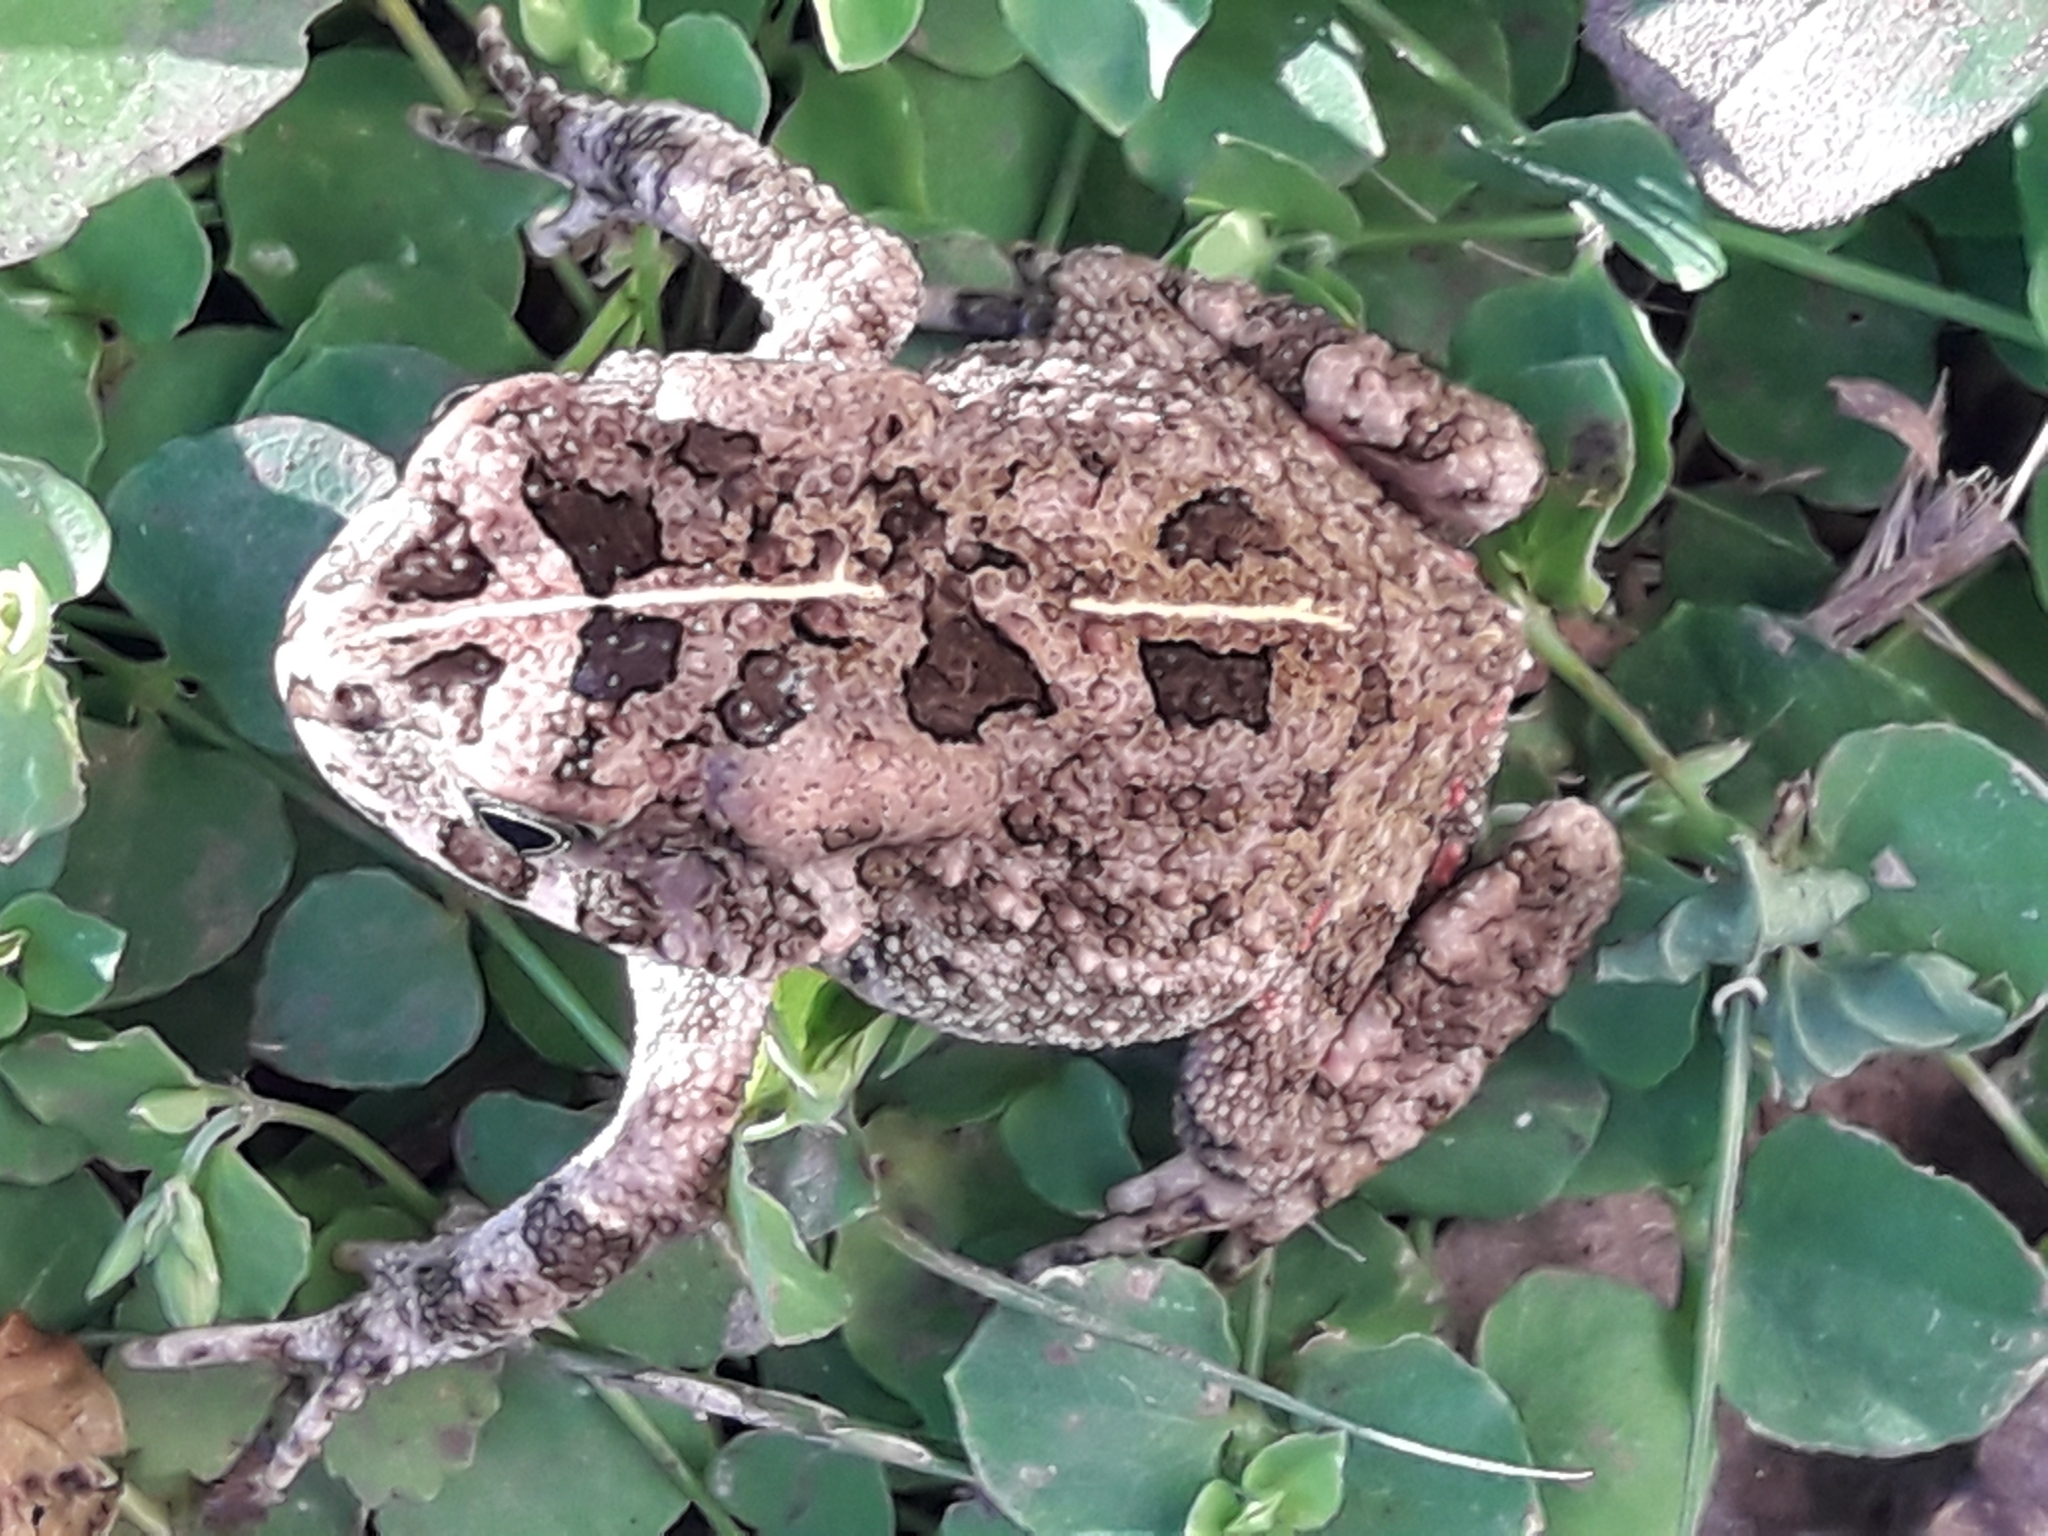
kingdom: Animalia
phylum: Chordata
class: Amphibia
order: Anura
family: Bufonidae
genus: Sclerophrys
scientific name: Sclerophrys gutturalis
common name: African common toad
